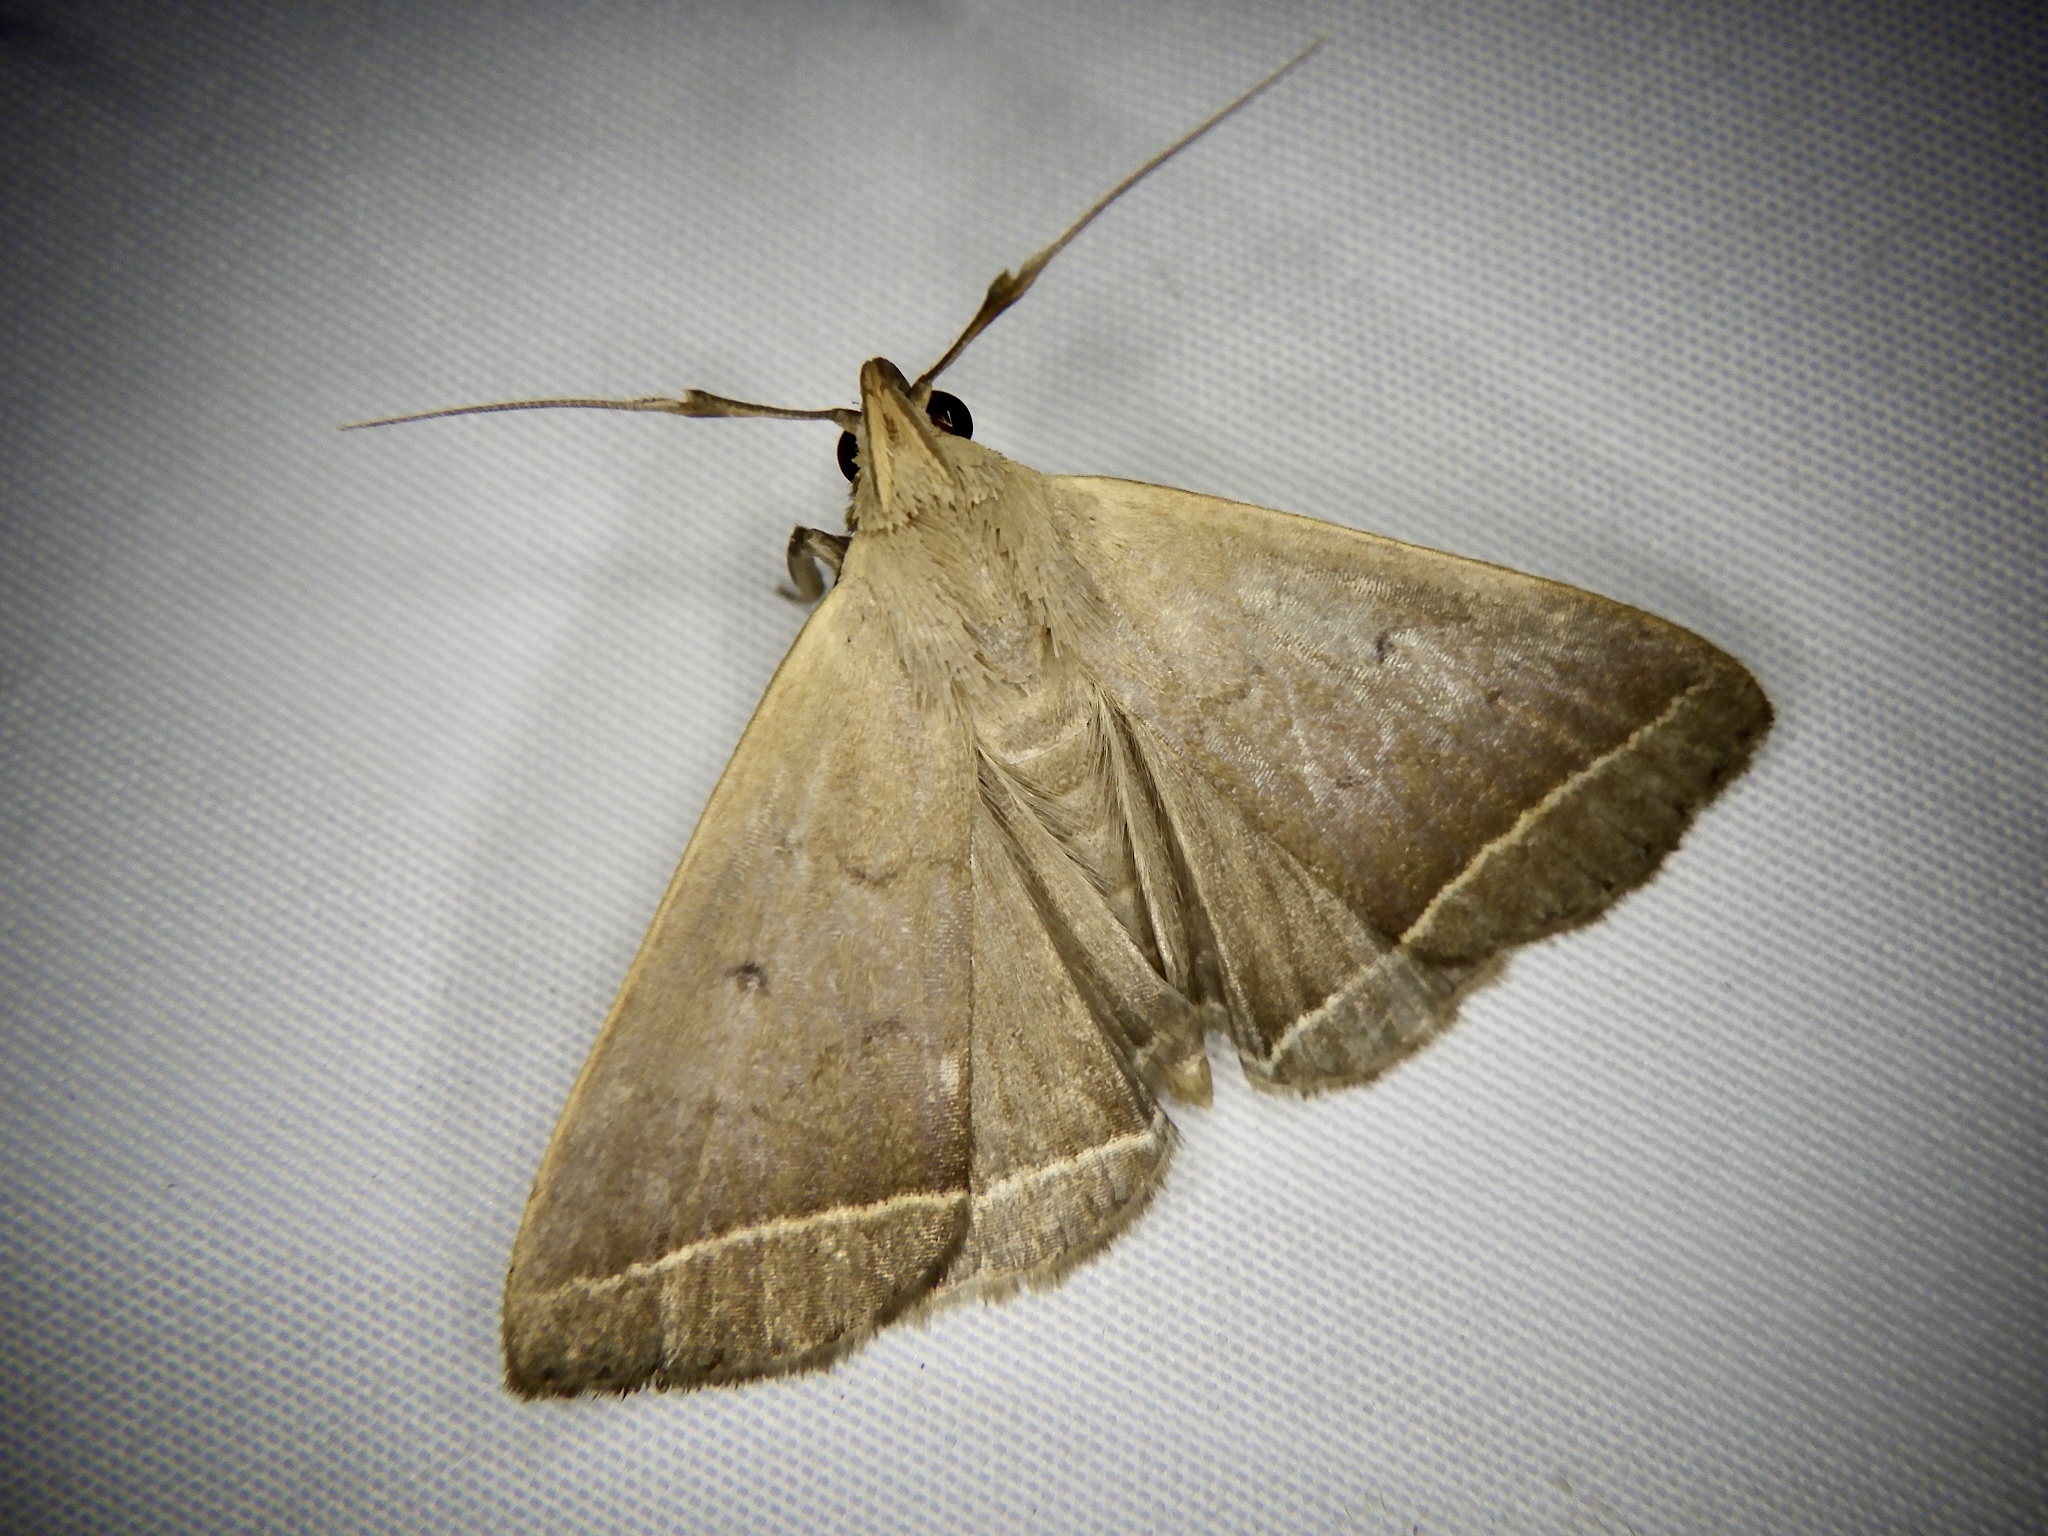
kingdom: Animalia
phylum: Arthropoda
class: Insecta
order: Lepidoptera
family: Erebidae
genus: Simplicia
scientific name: Simplicia xanthoma
